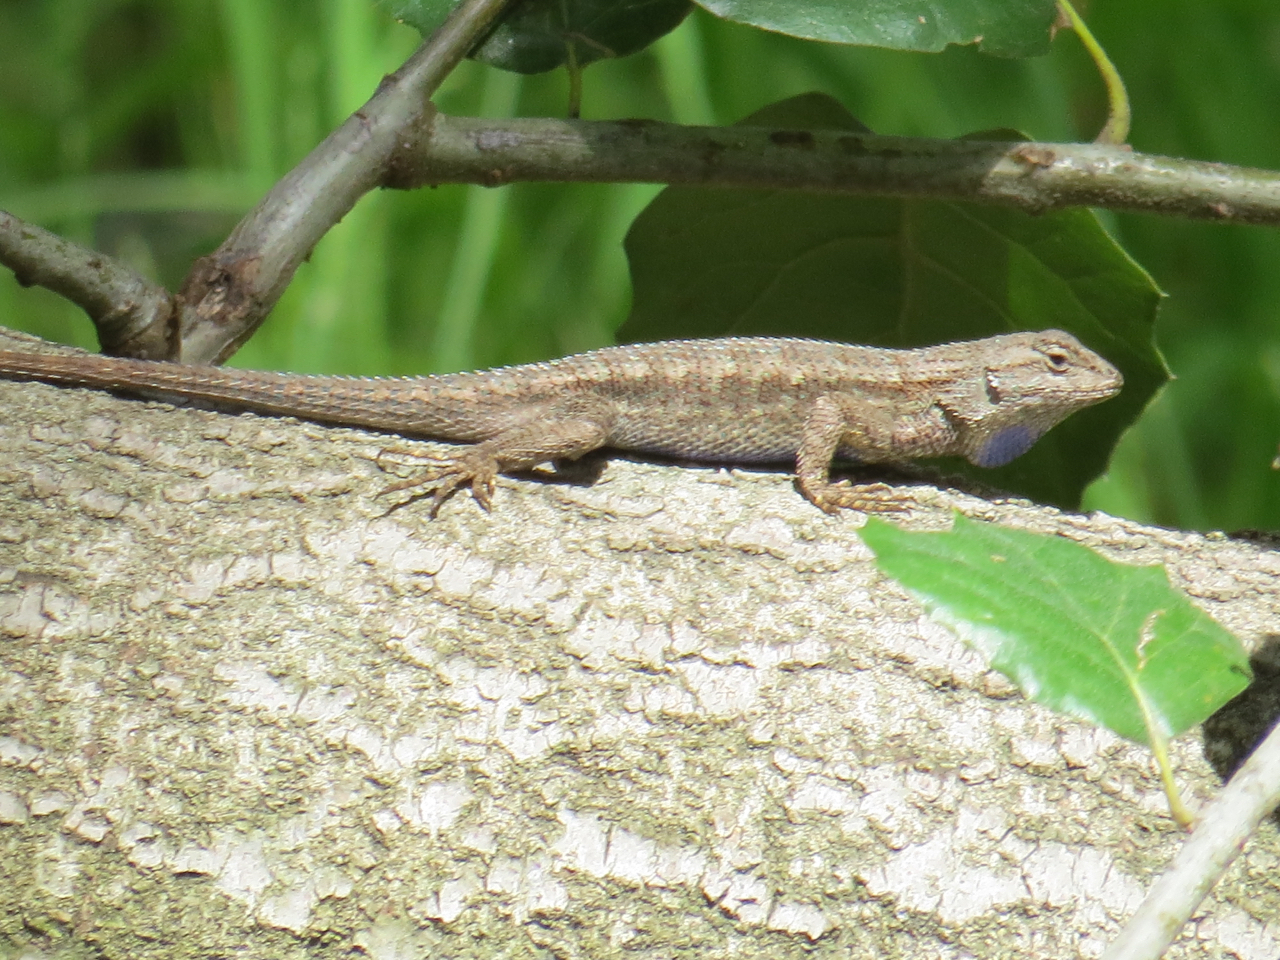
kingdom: Animalia
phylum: Chordata
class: Squamata
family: Phrynosomatidae
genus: Sceloporus
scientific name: Sceloporus occidentalis
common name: Western fence lizard
